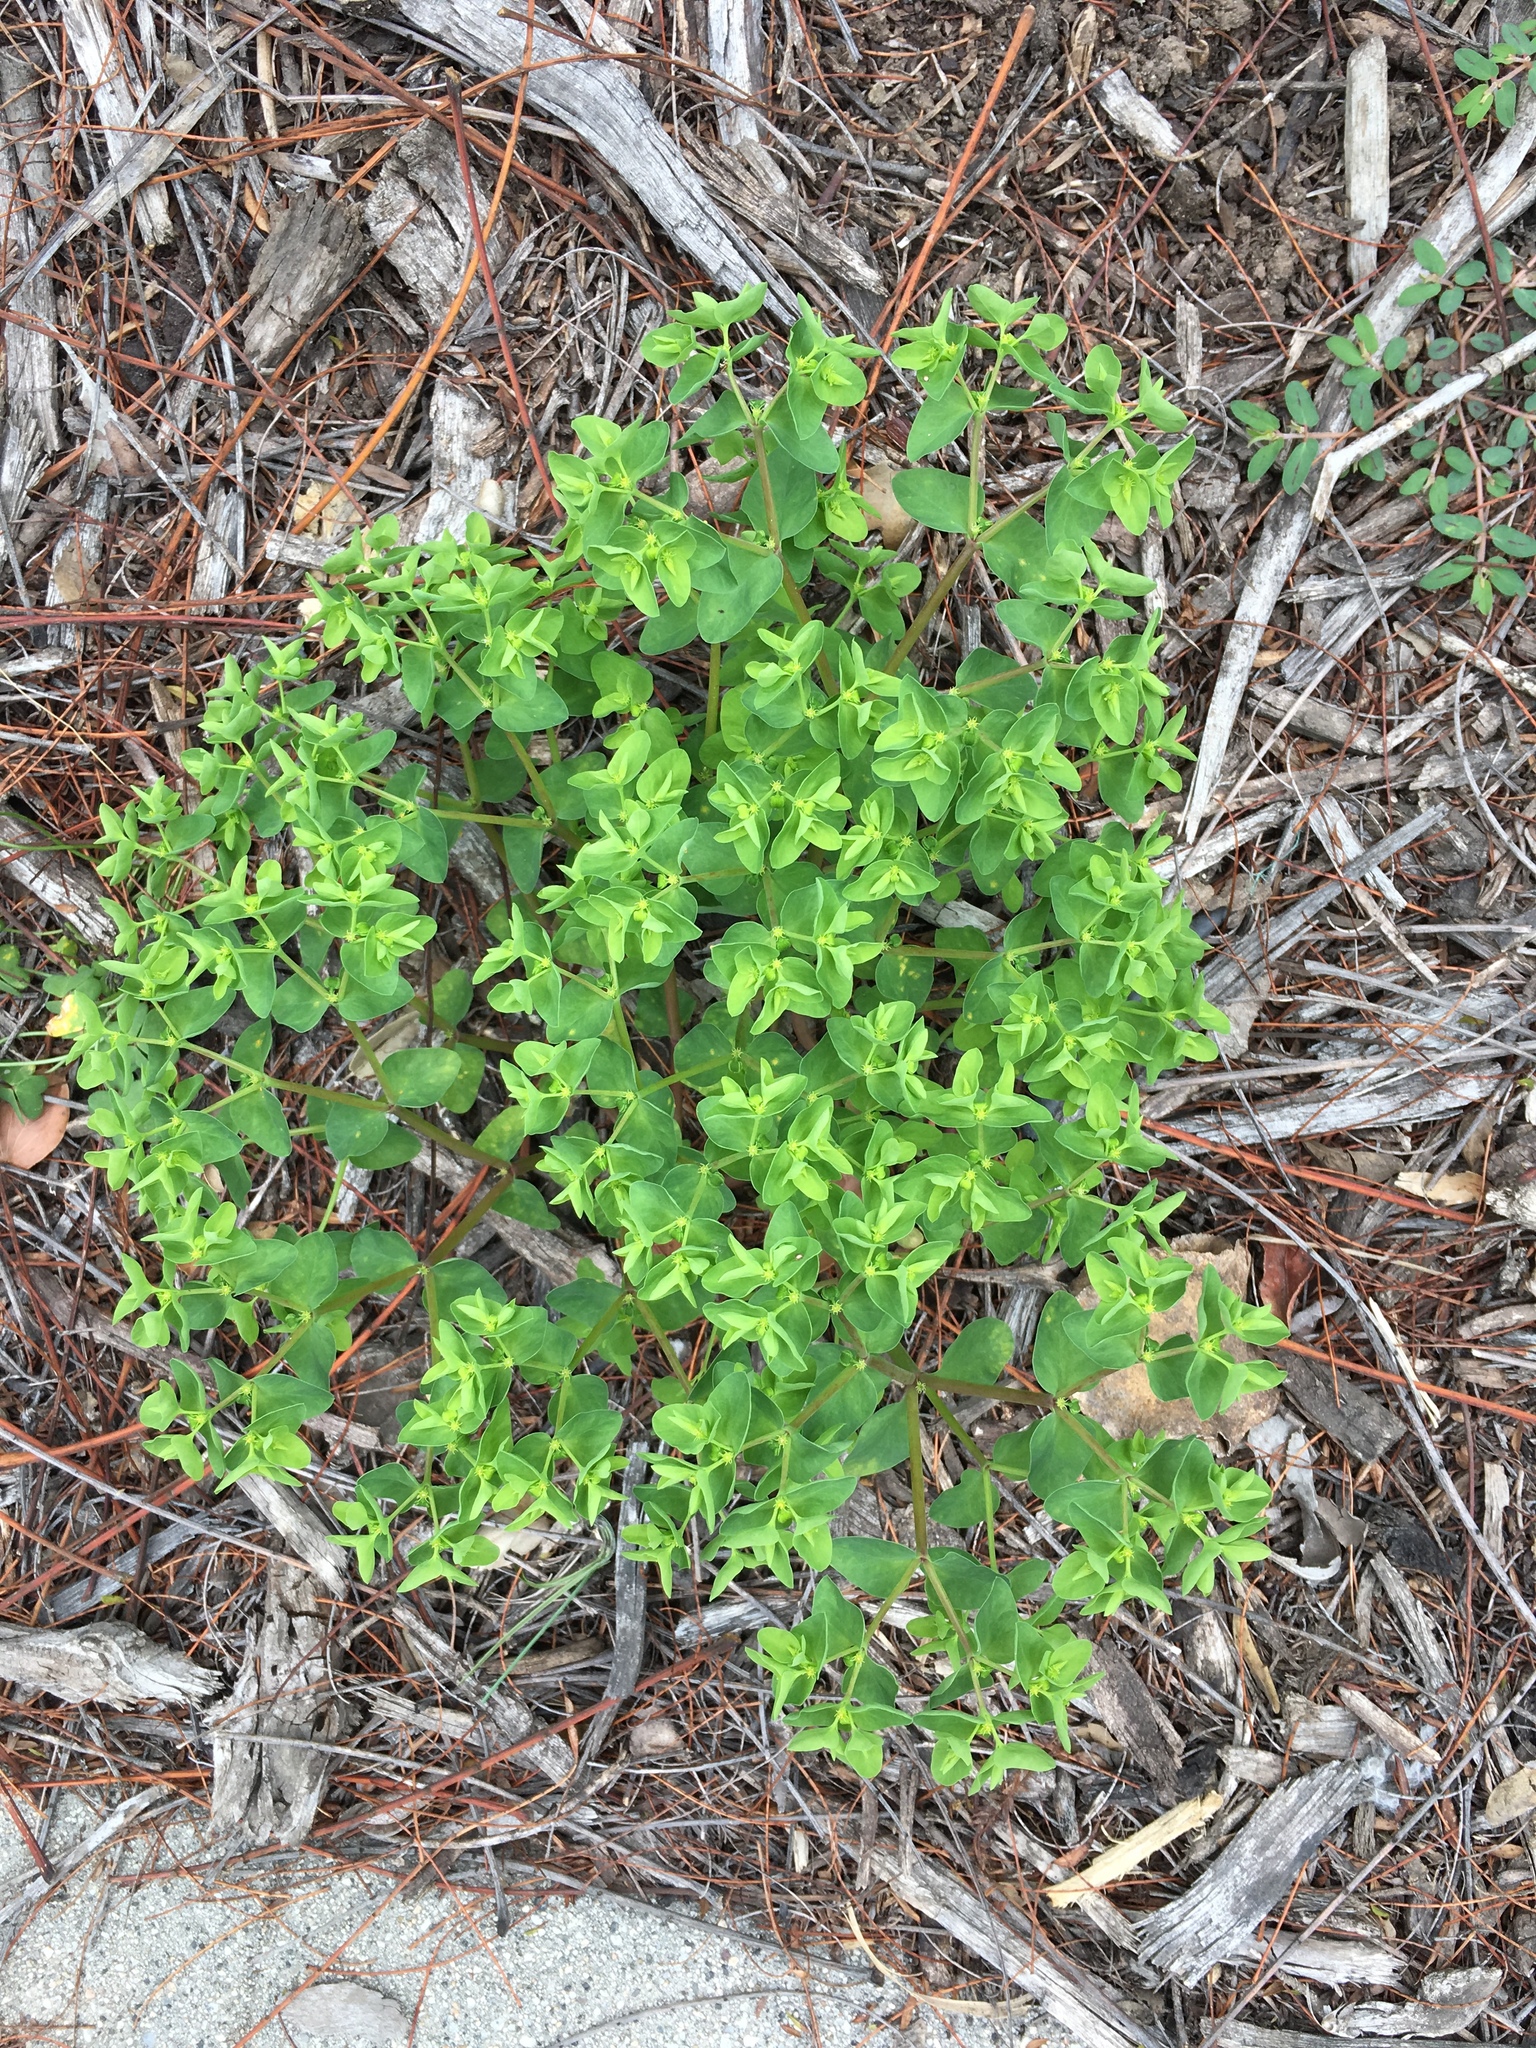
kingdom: Plantae
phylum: Tracheophyta
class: Magnoliopsida
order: Malpighiales
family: Euphorbiaceae
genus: Euphorbia
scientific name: Euphorbia peplus
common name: Petty spurge
